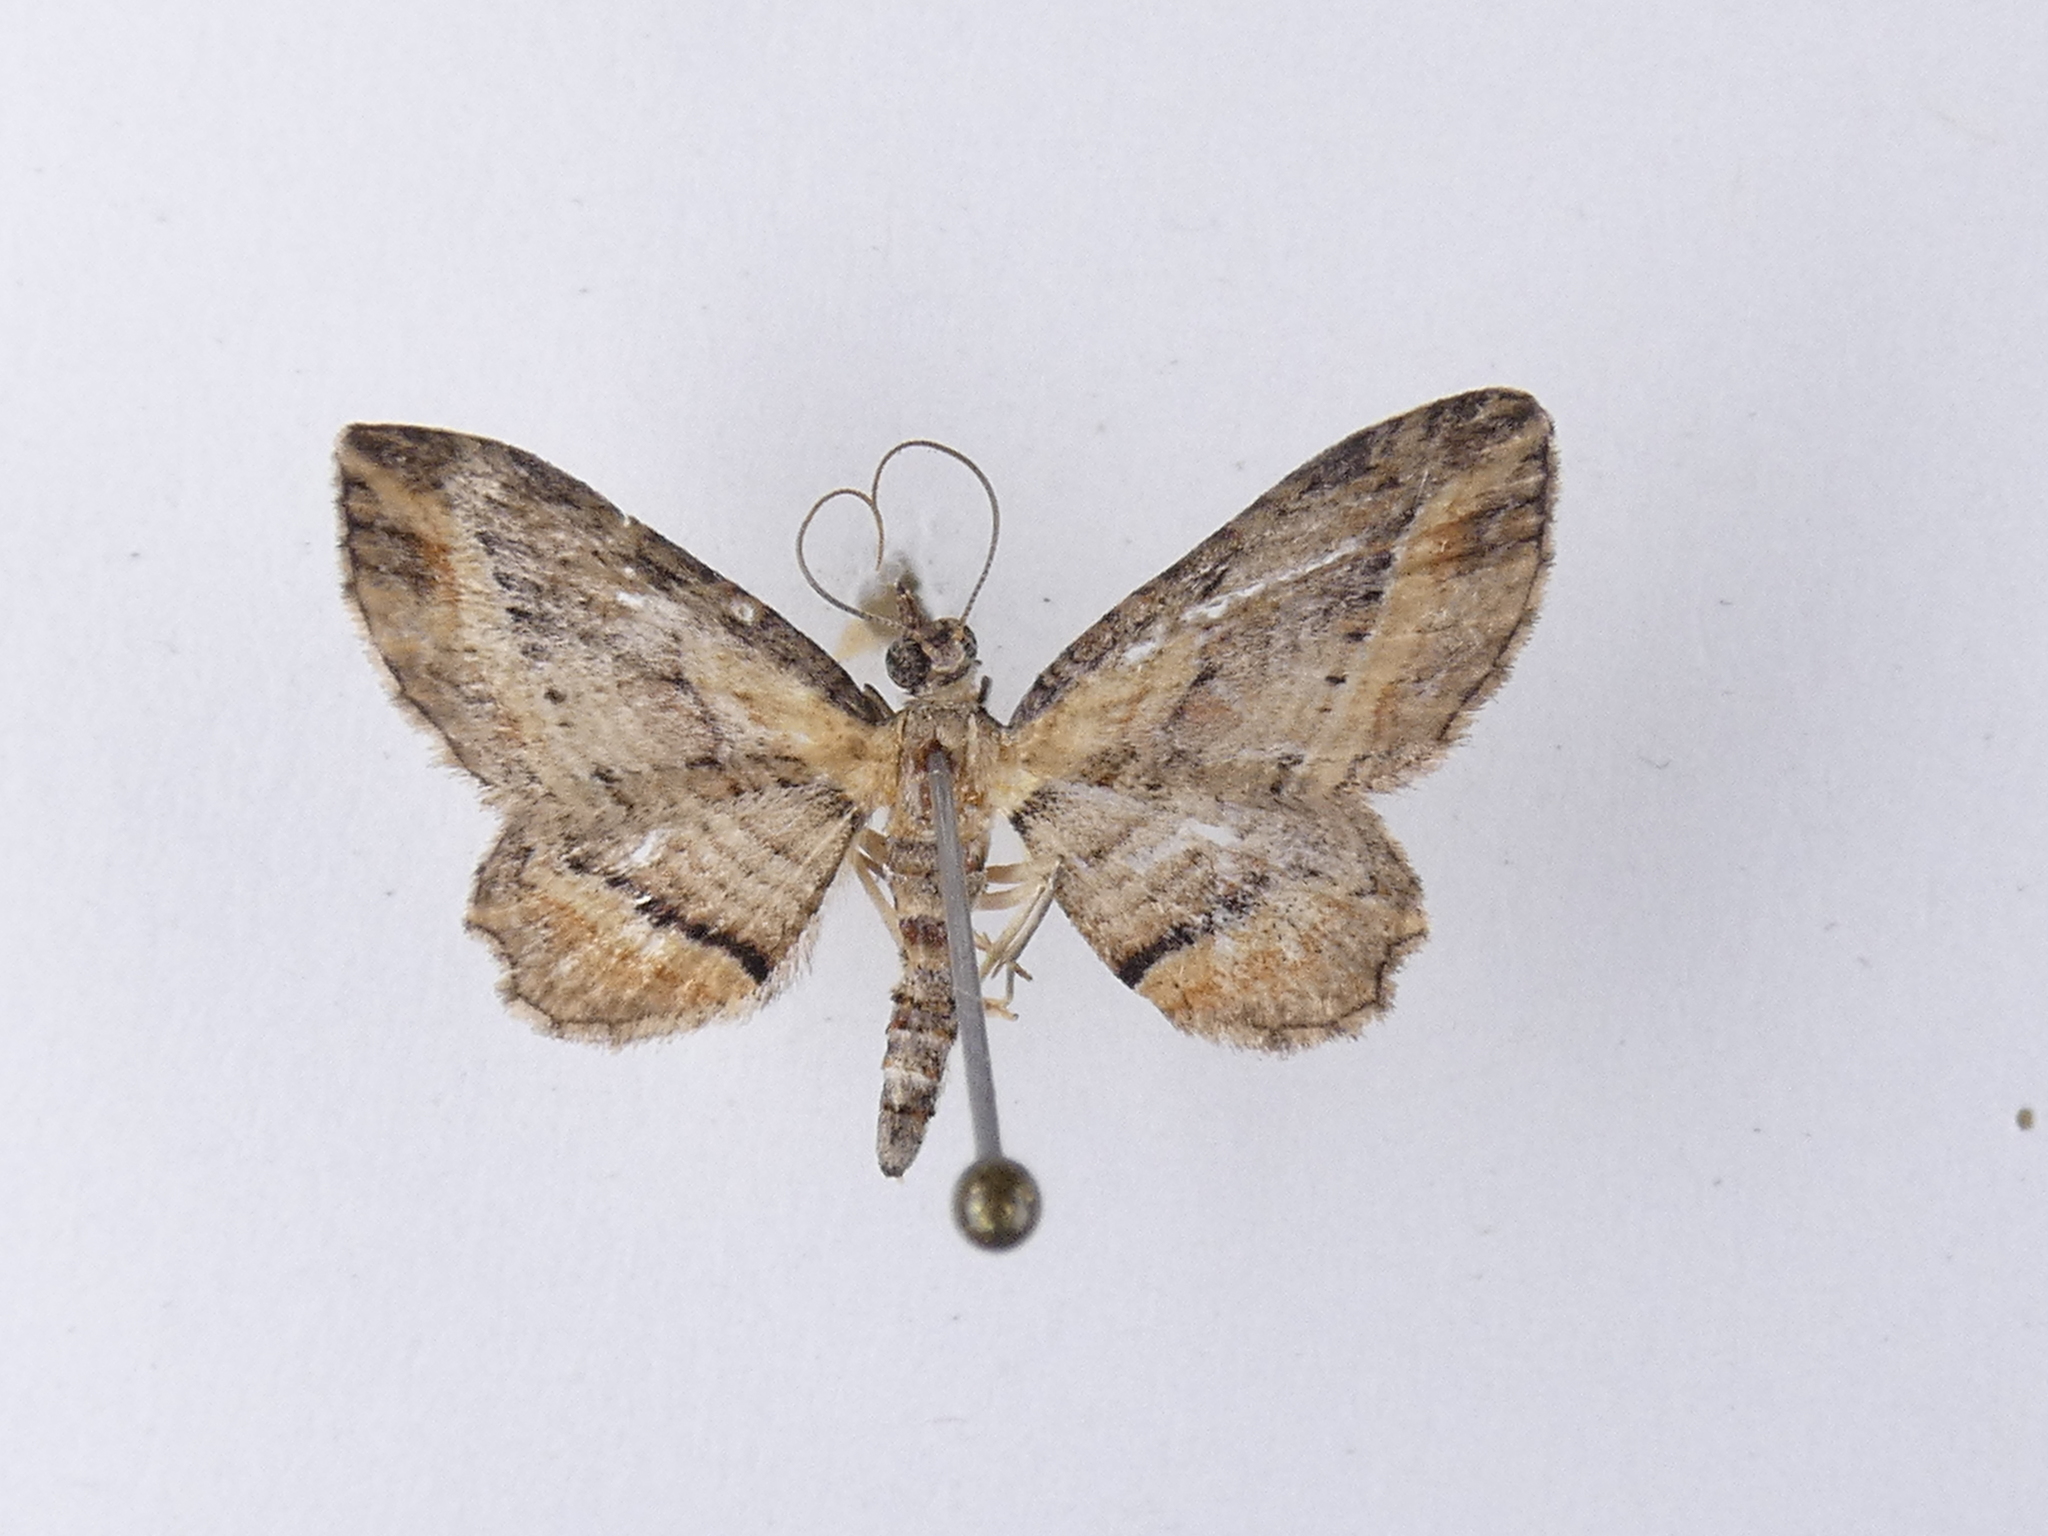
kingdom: Animalia
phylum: Arthropoda
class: Insecta
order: Lepidoptera
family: Geometridae
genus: Chloroclystis
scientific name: Chloroclystis filata
